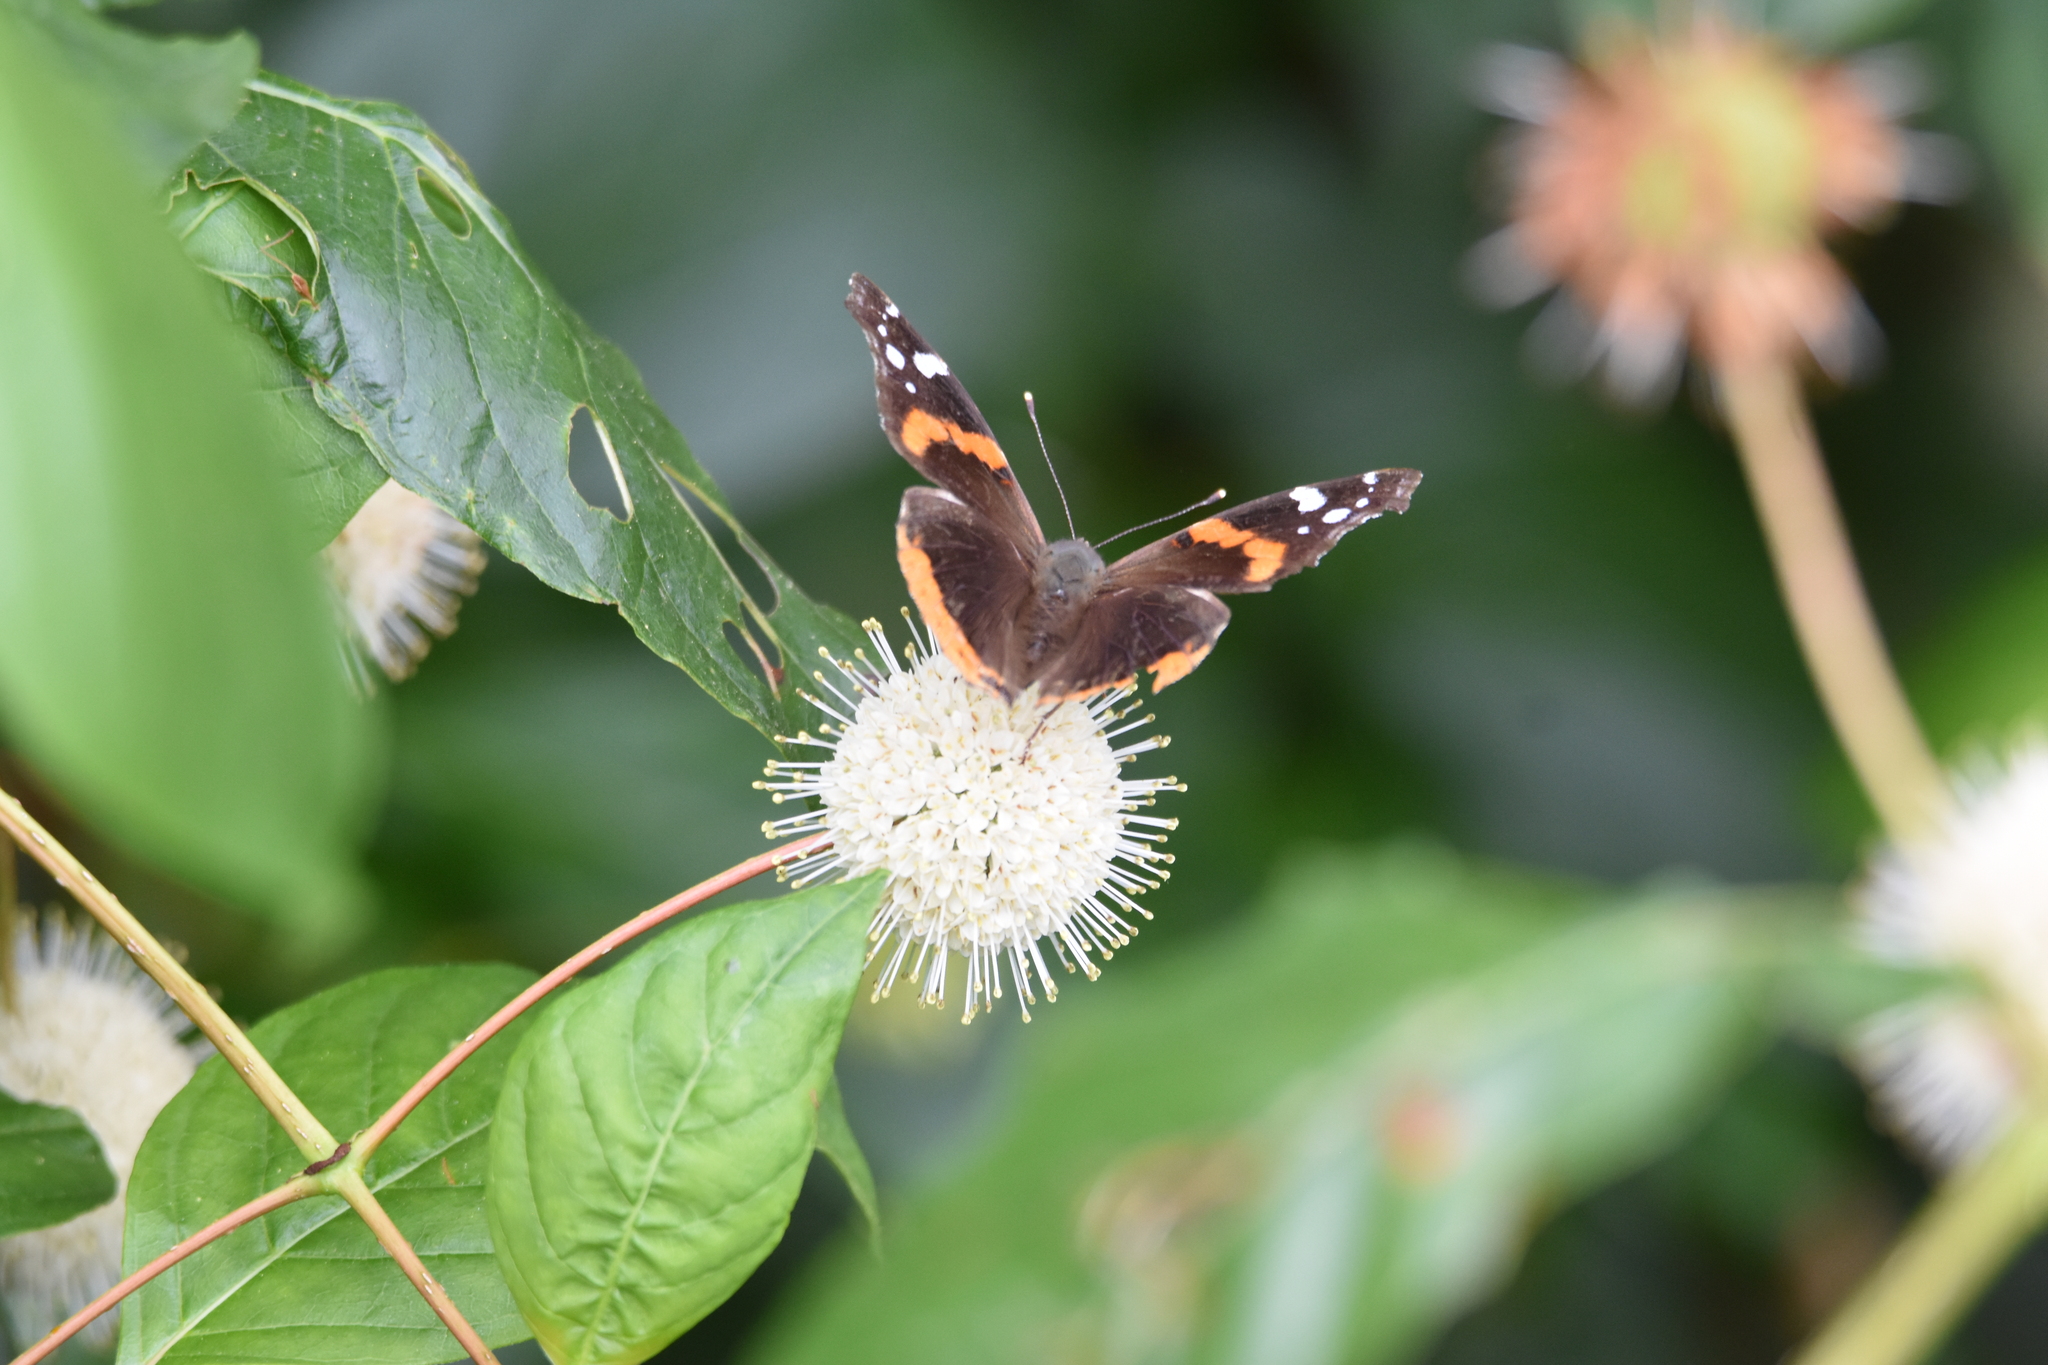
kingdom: Animalia
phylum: Arthropoda
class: Insecta
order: Lepidoptera
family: Nymphalidae
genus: Vanessa
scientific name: Vanessa atalanta
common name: Red admiral
